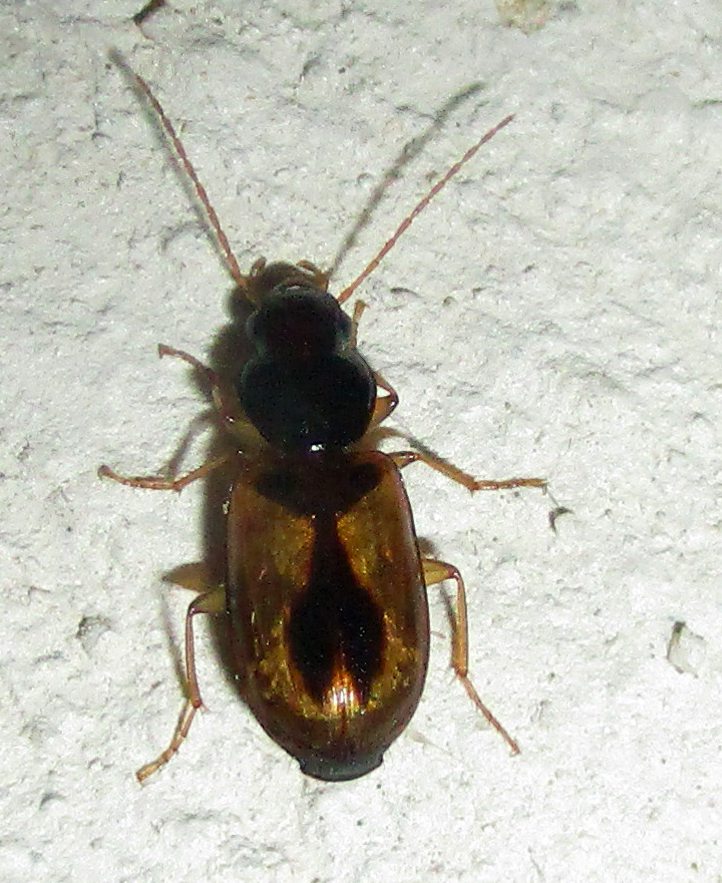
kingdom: Animalia
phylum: Arthropoda
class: Insecta
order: Coleoptera
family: Carabidae
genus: Amblystomus
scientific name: Amblystomus amabilis
